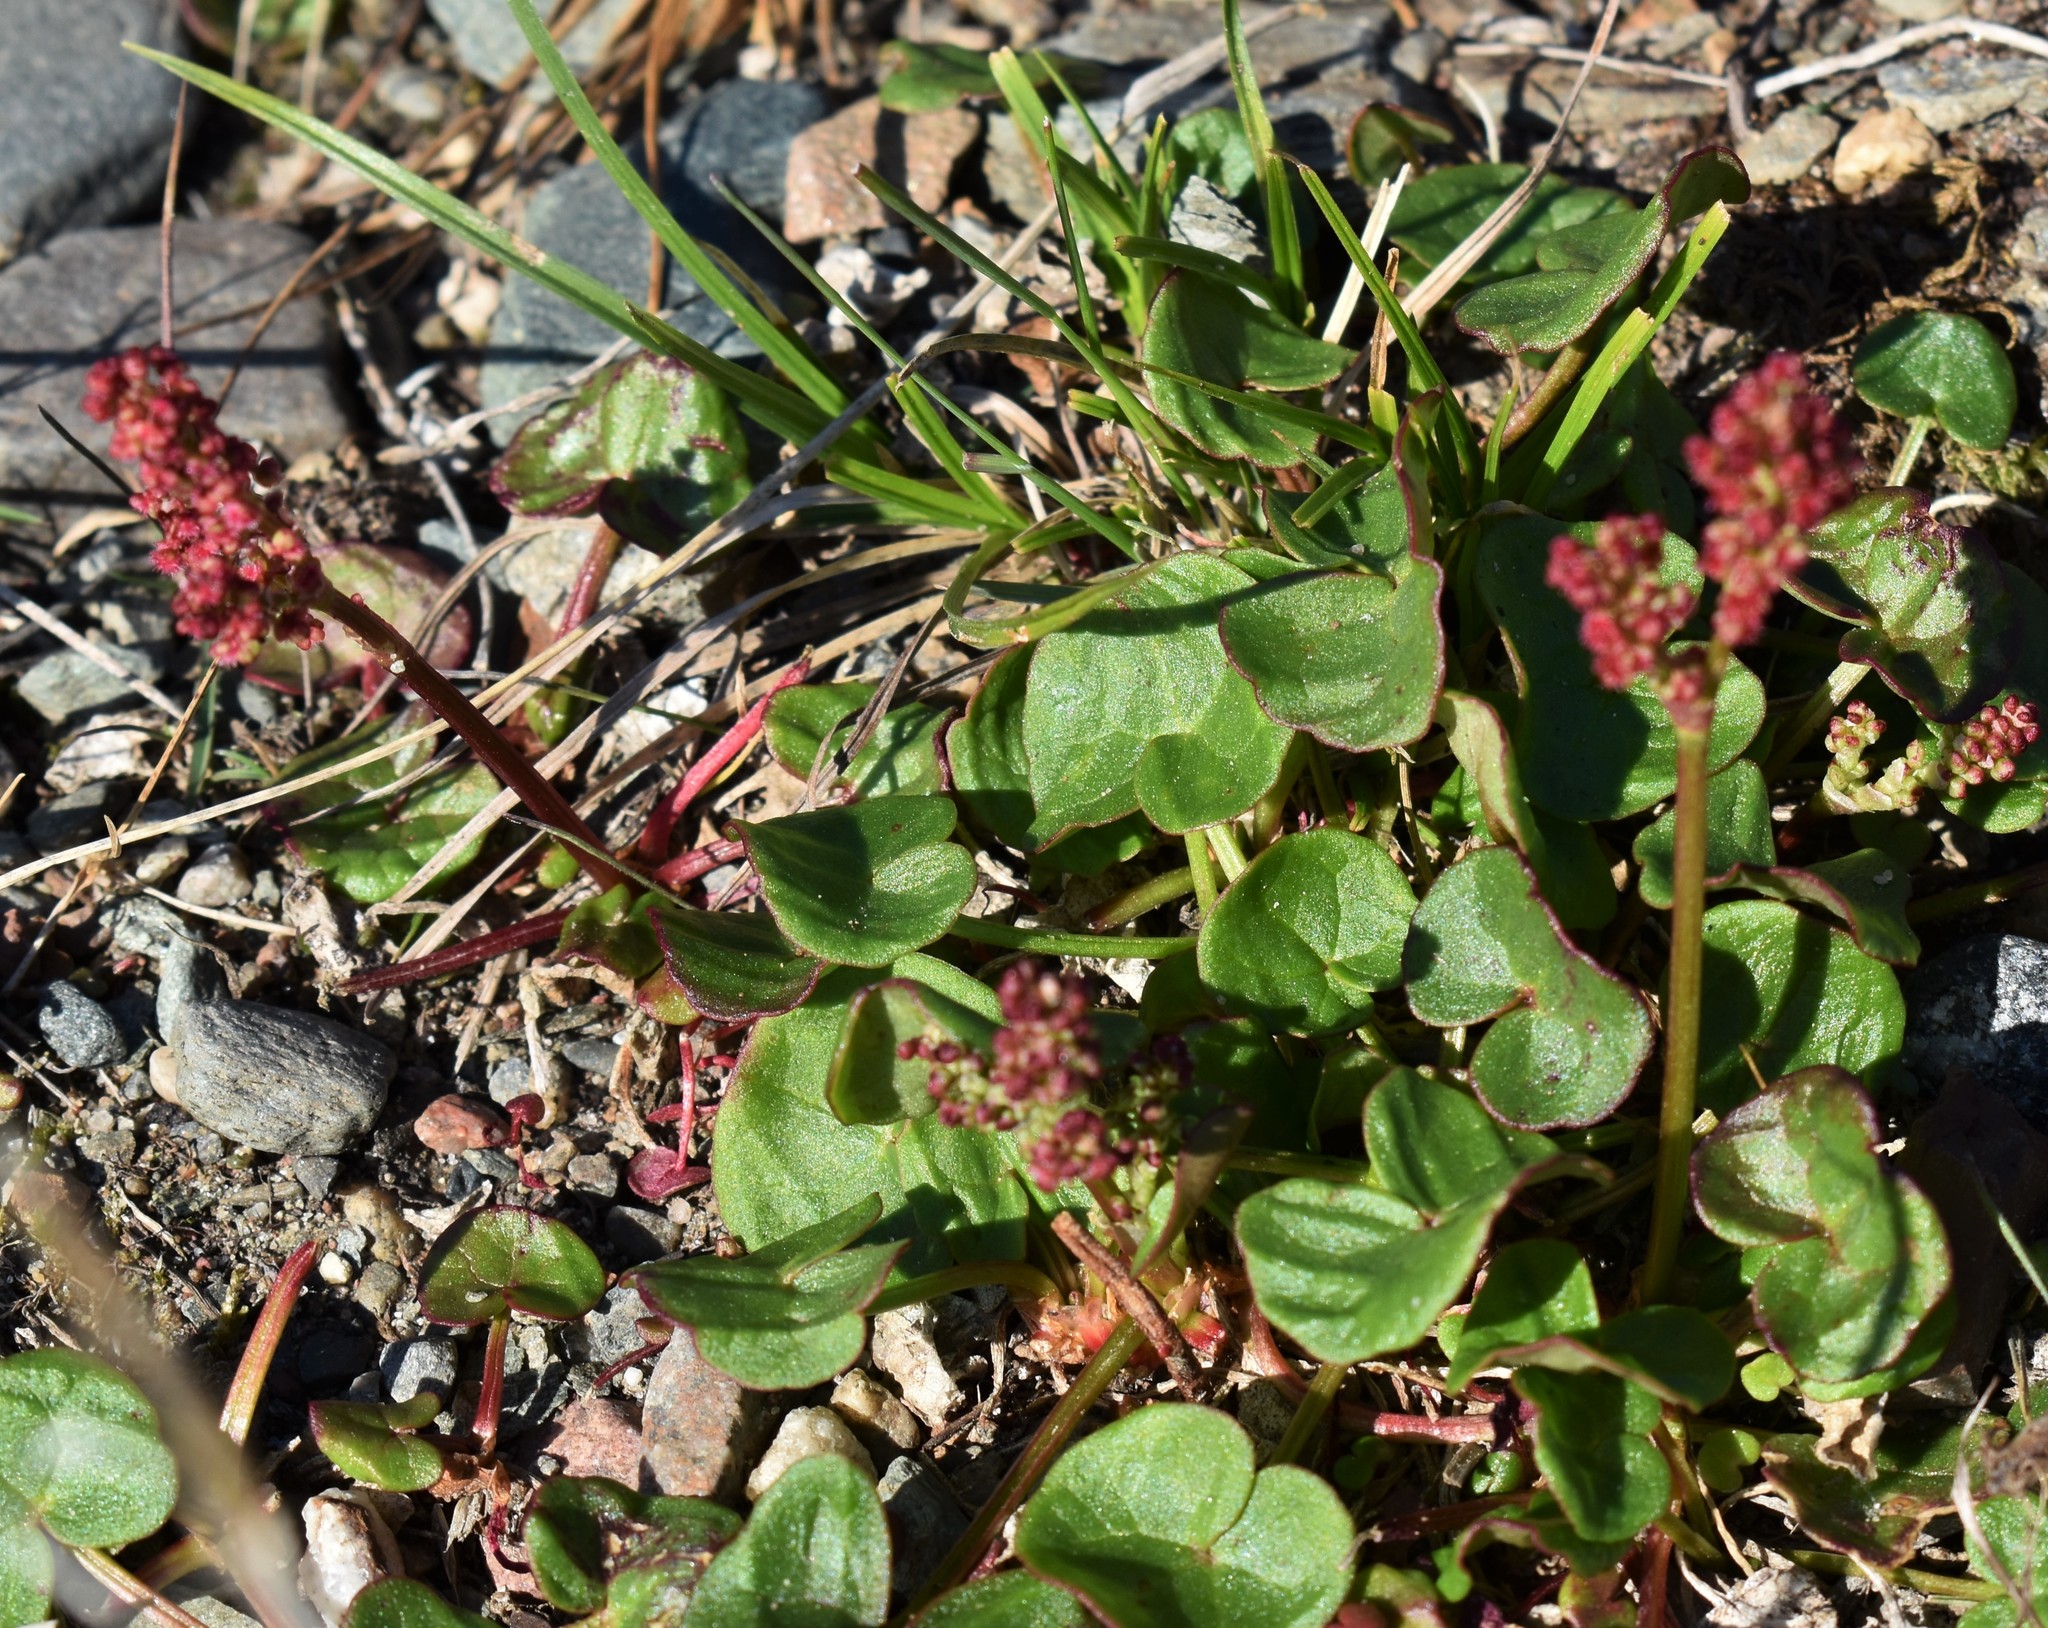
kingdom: Plantae
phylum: Tracheophyta
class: Magnoliopsida
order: Caryophyllales
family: Polygonaceae
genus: Oxyria
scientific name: Oxyria digyna
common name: Alpine mountain-sorrel
